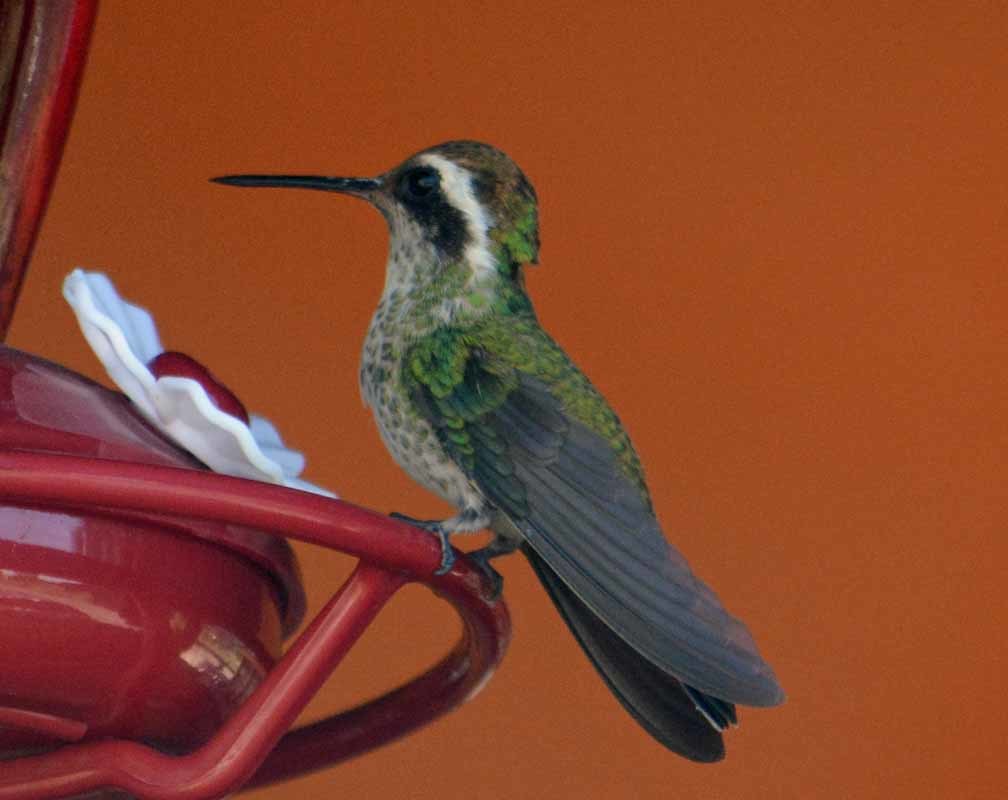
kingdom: Animalia
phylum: Chordata
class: Aves
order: Apodiformes
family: Trochilidae
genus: Basilinna
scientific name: Basilinna leucotis
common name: White-eared hummingbird
